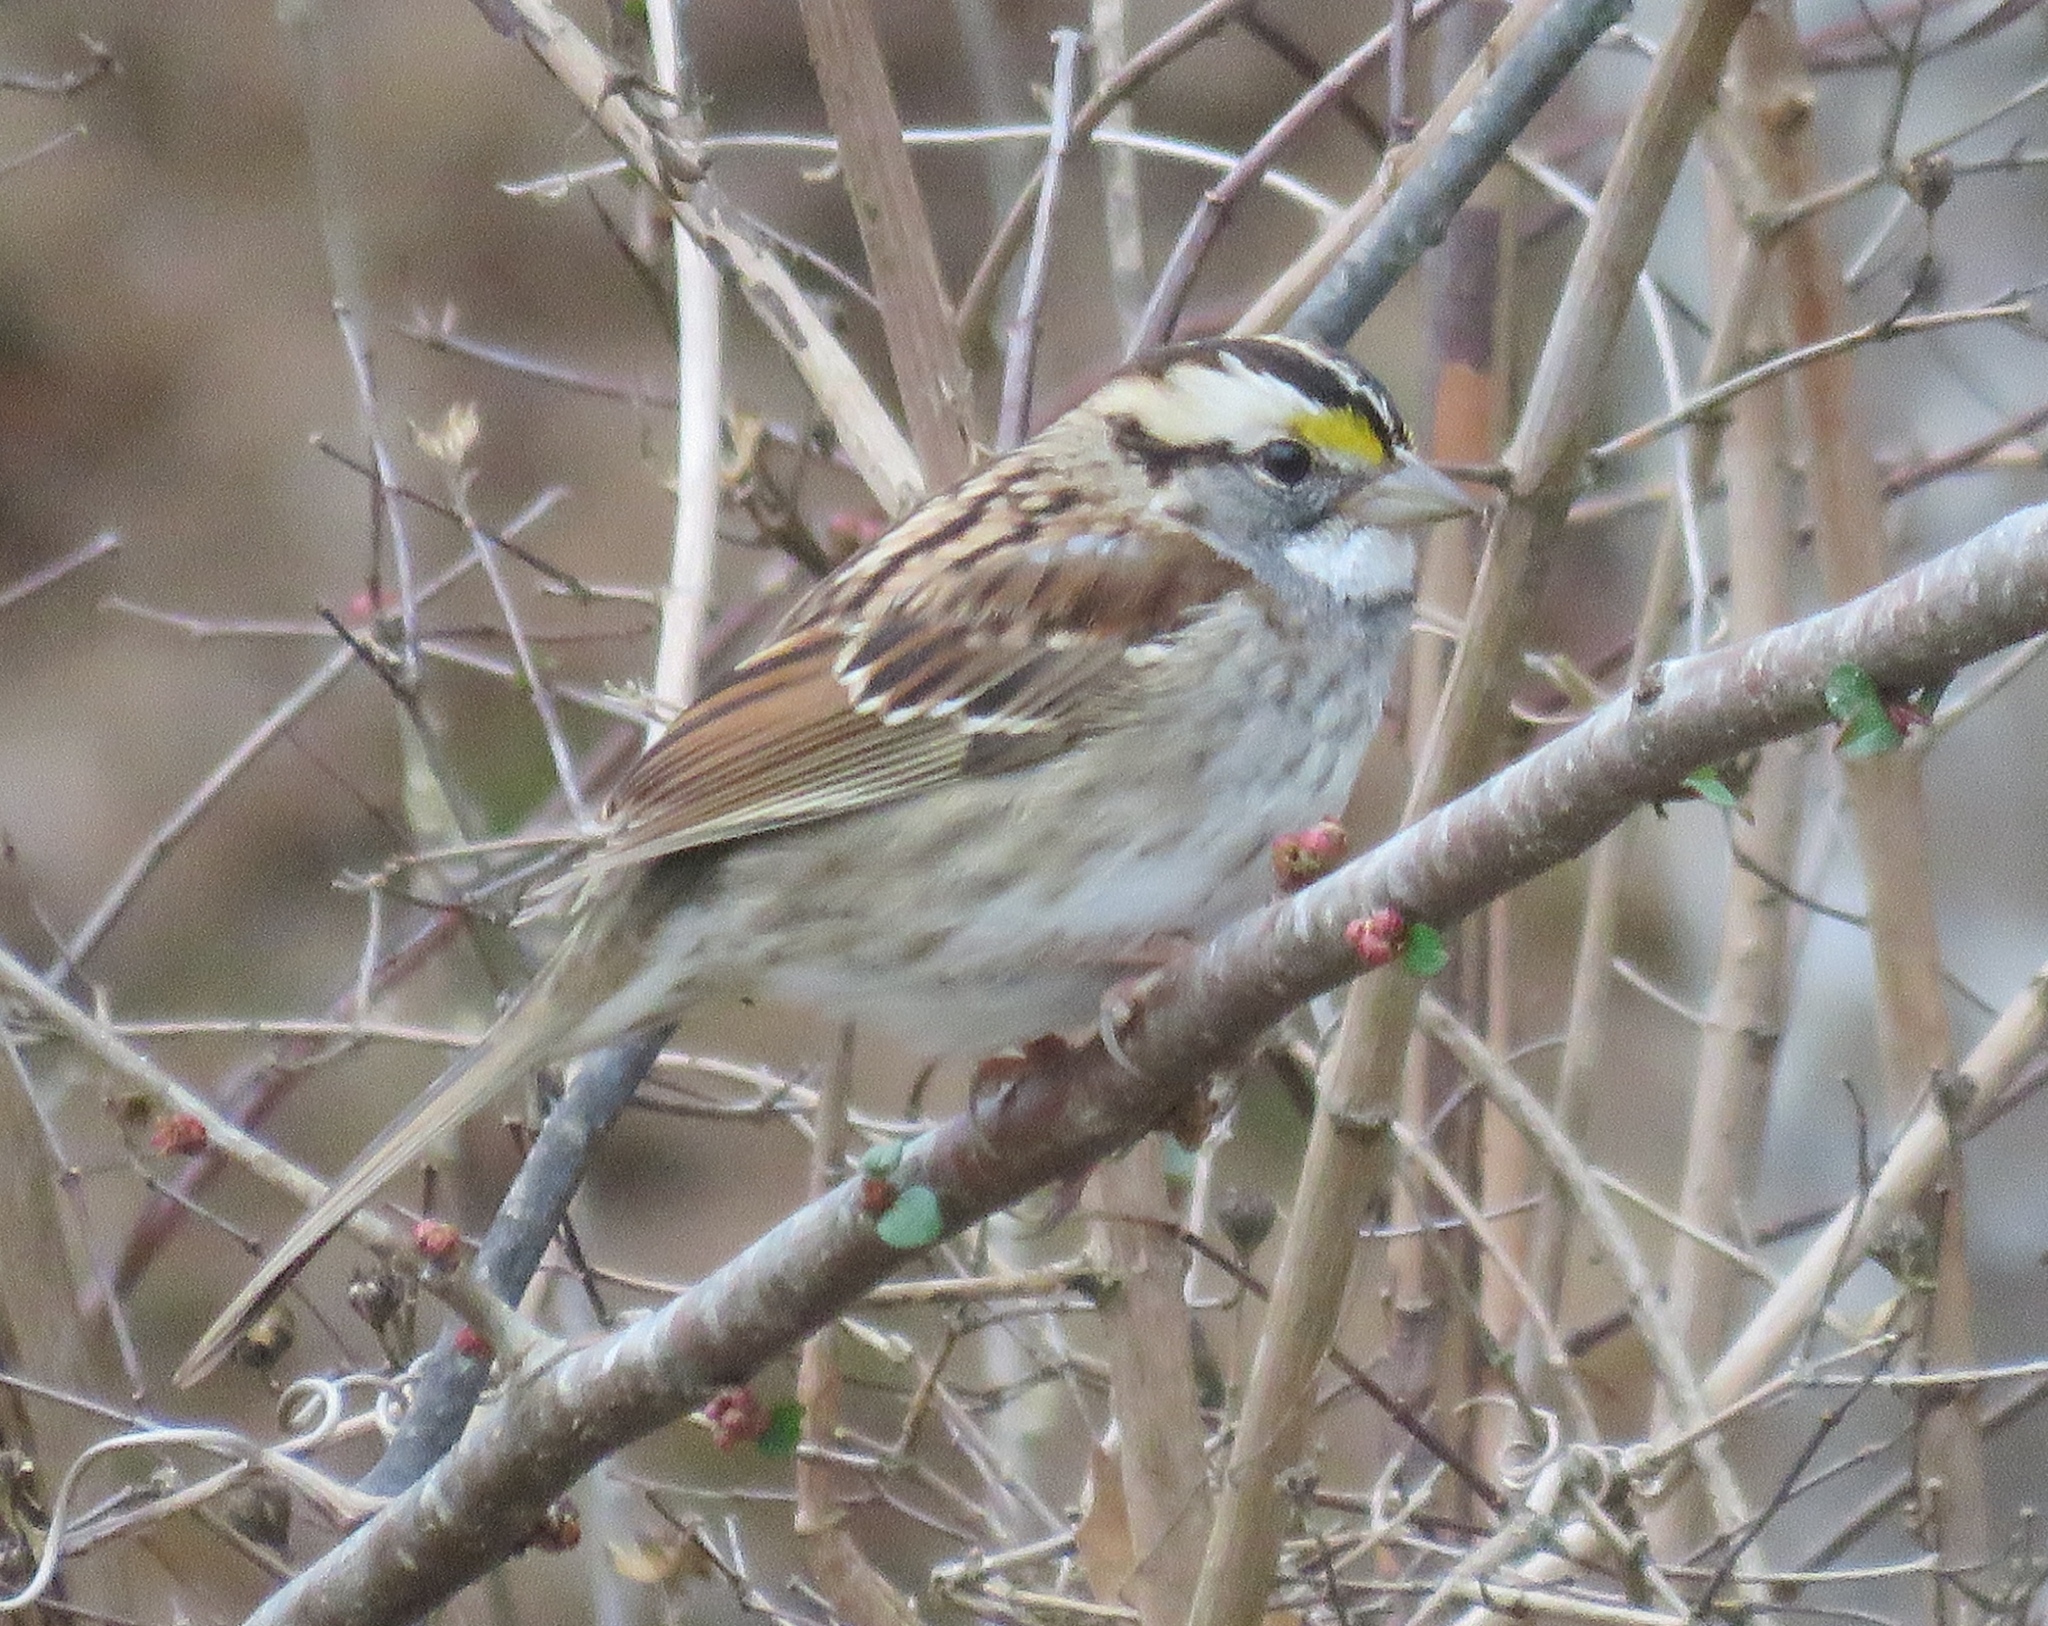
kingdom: Animalia
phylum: Chordata
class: Aves
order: Passeriformes
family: Passerellidae
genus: Zonotrichia
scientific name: Zonotrichia albicollis
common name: White-throated sparrow
